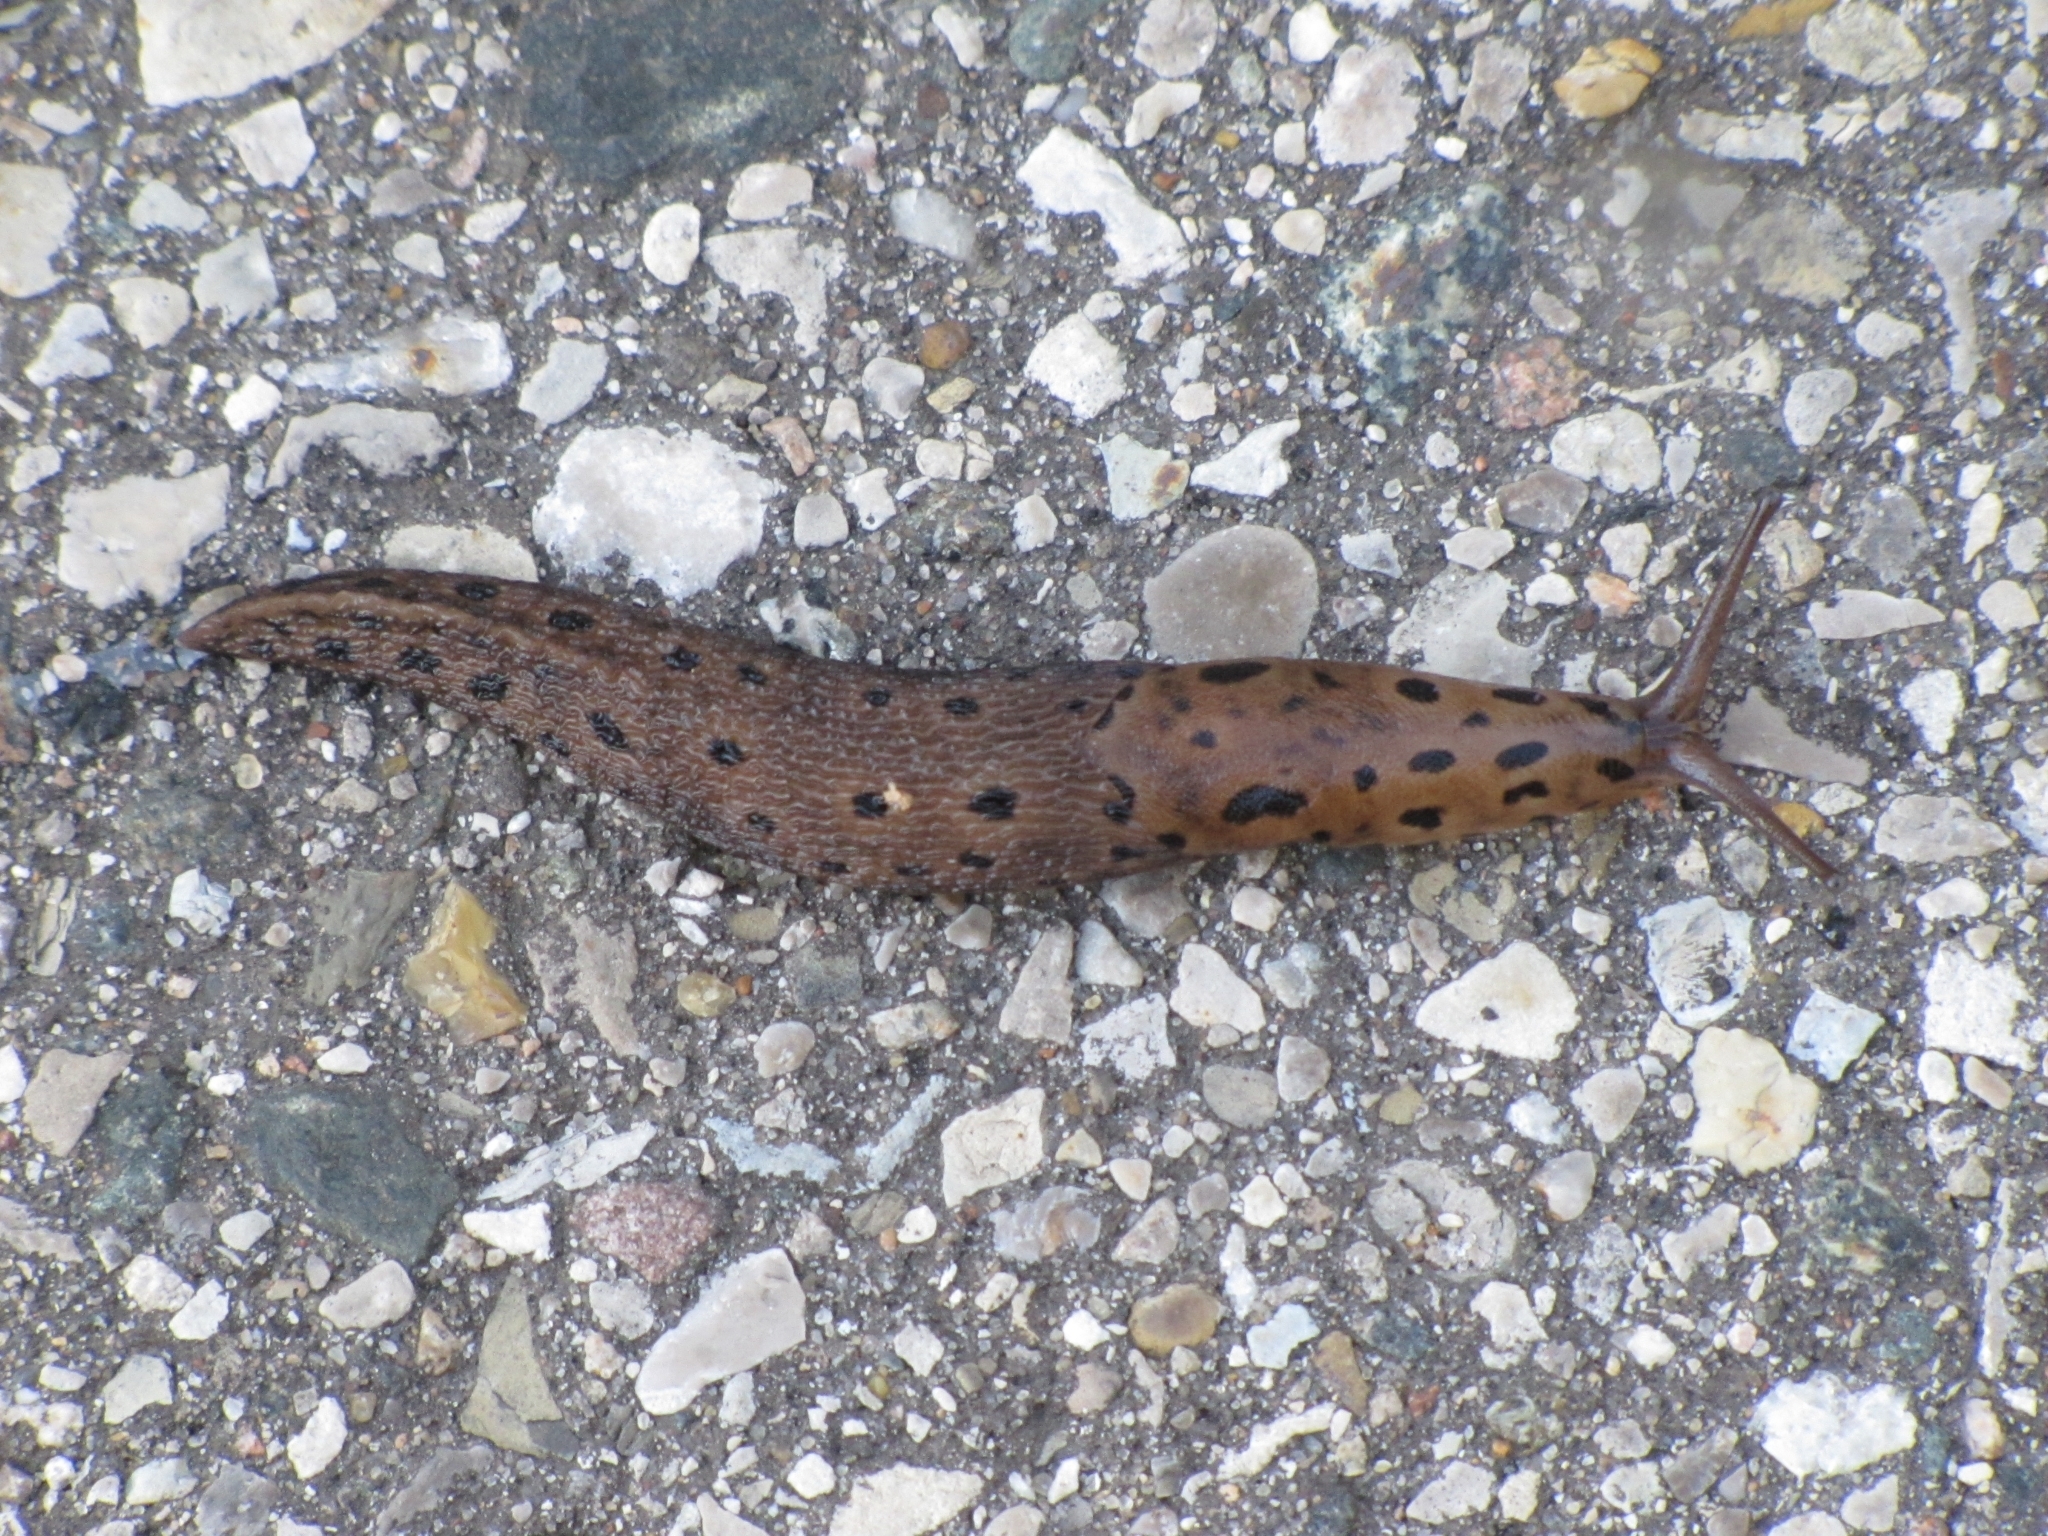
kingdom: Animalia
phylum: Mollusca
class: Gastropoda
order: Stylommatophora
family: Limacidae
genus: Limax
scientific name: Limax maximus
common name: Great grey slug
